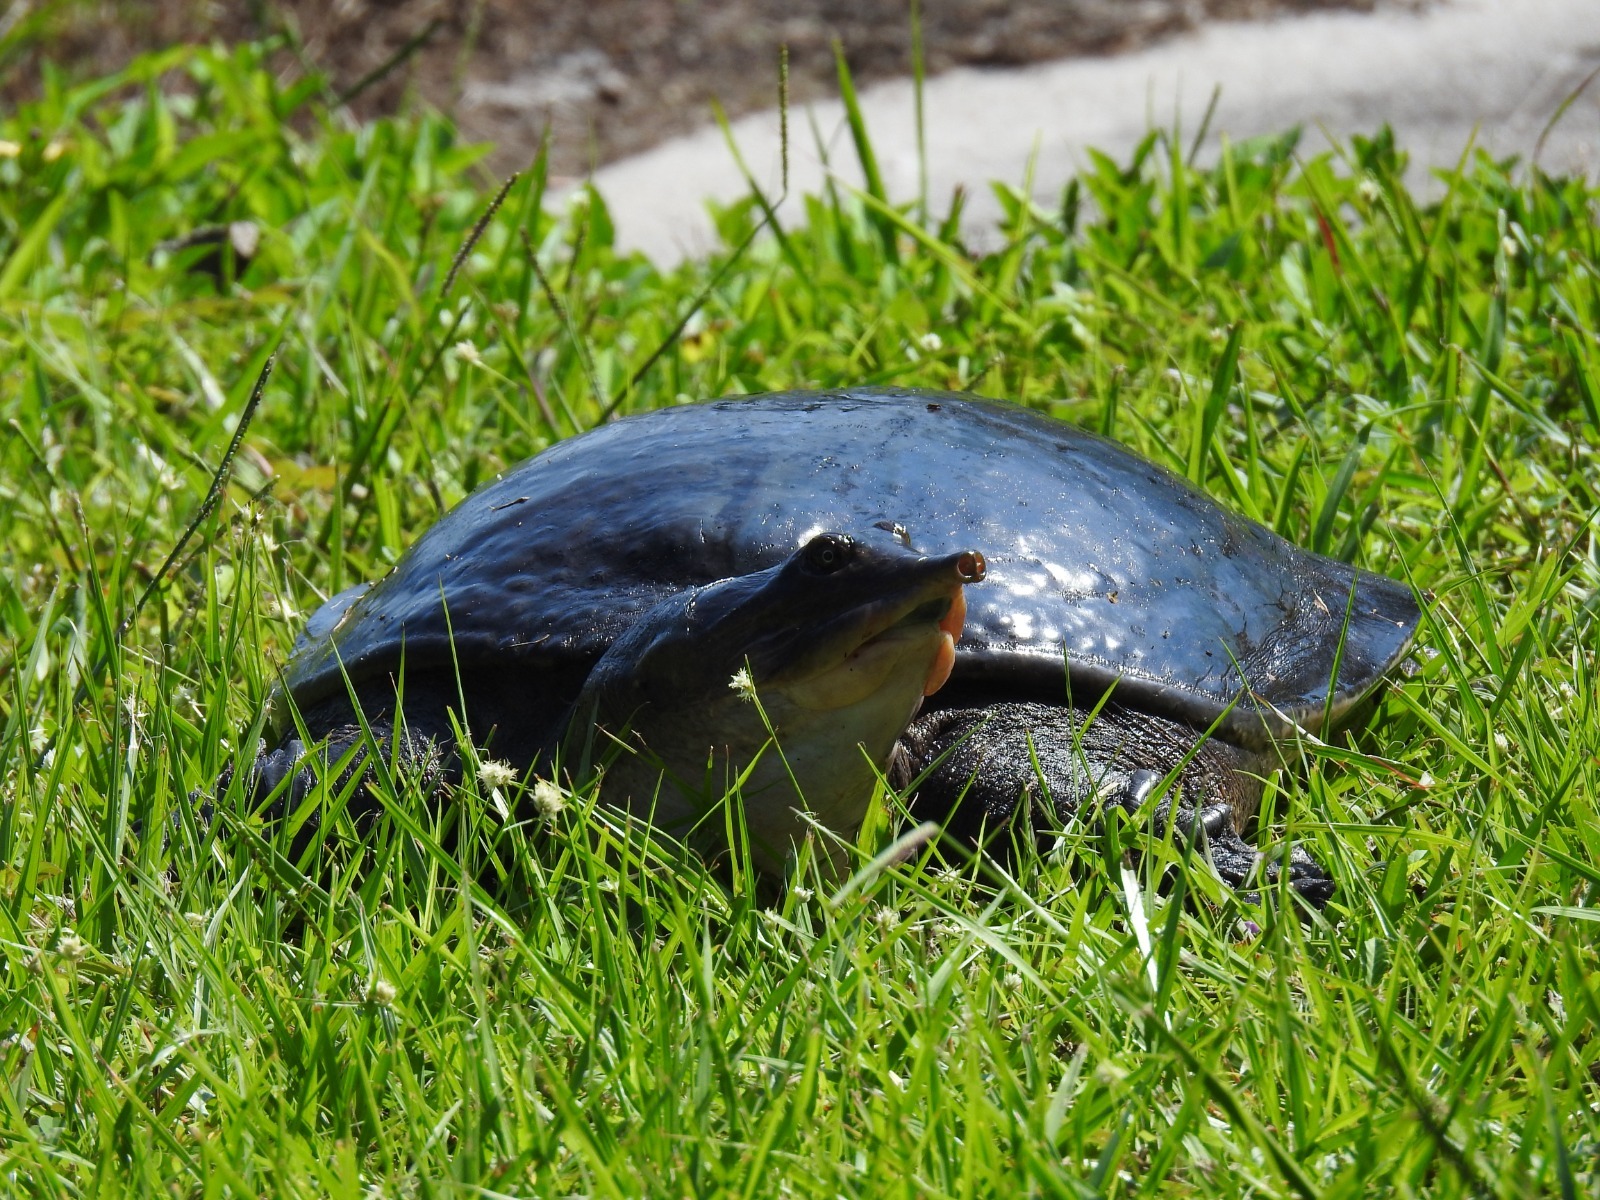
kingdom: Animalia
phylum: Chordata
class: Testudines
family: Trionychidae
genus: Apalone
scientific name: Apalone ferox
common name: Florida softshell turtle
